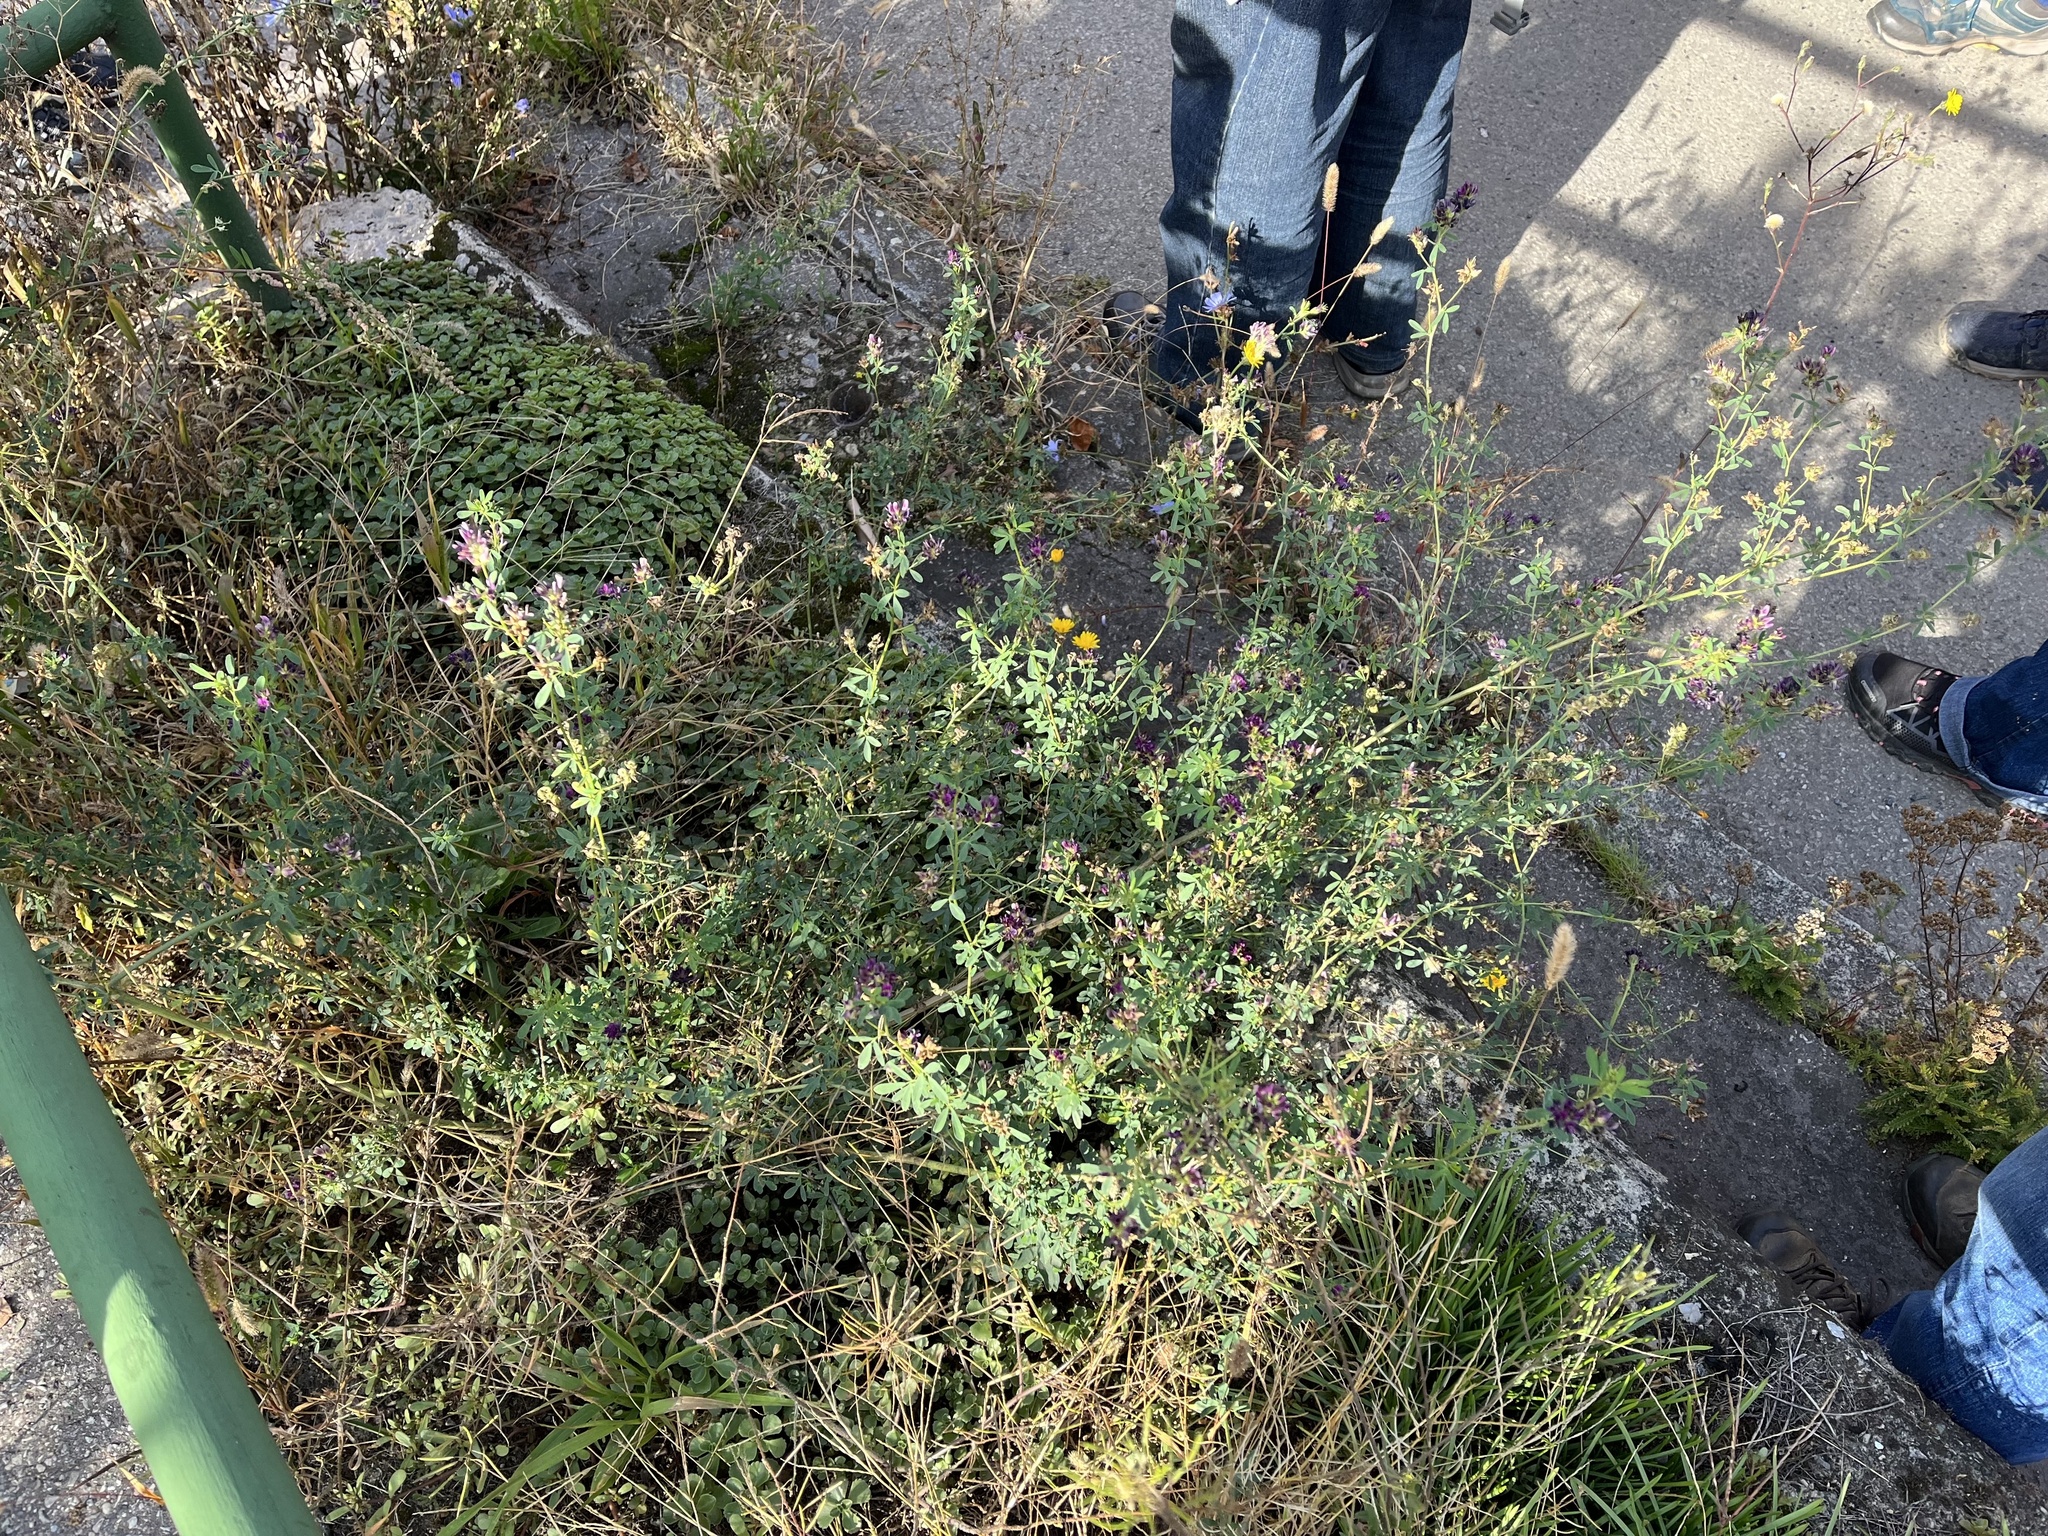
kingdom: Plantae
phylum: Tracheophyta
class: Magnoliopsida
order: Fabales
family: Fabaceae
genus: Medicago
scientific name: Medicago sativa
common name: Alfalfa
